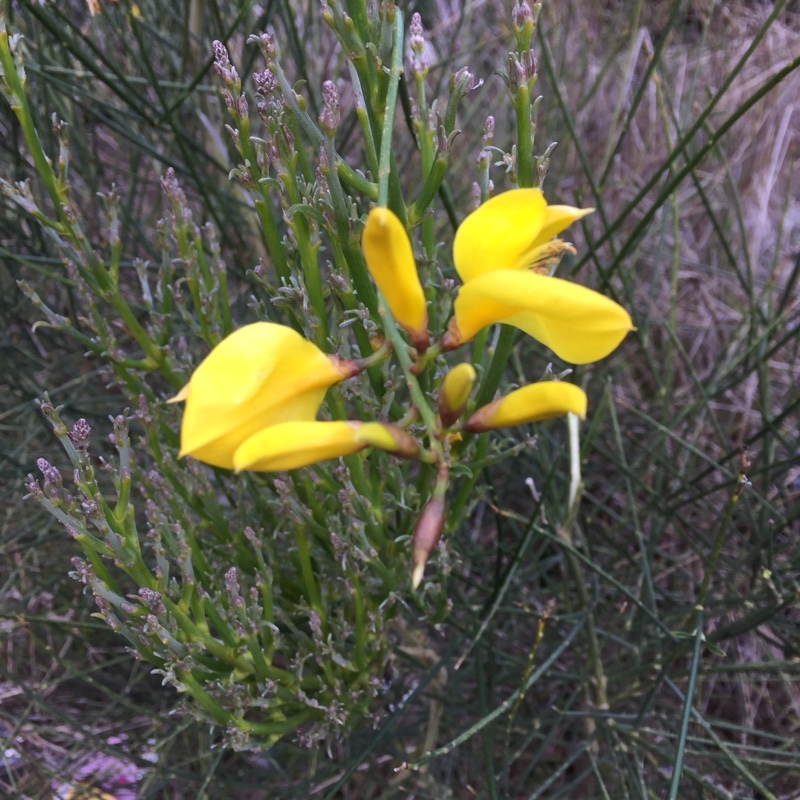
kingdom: Plantae
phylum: Tracheophyta
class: Magnoliopsida
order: Fabales
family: Fabaceae
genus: Spartium
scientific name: Spartium junceum
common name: Spanish broom
